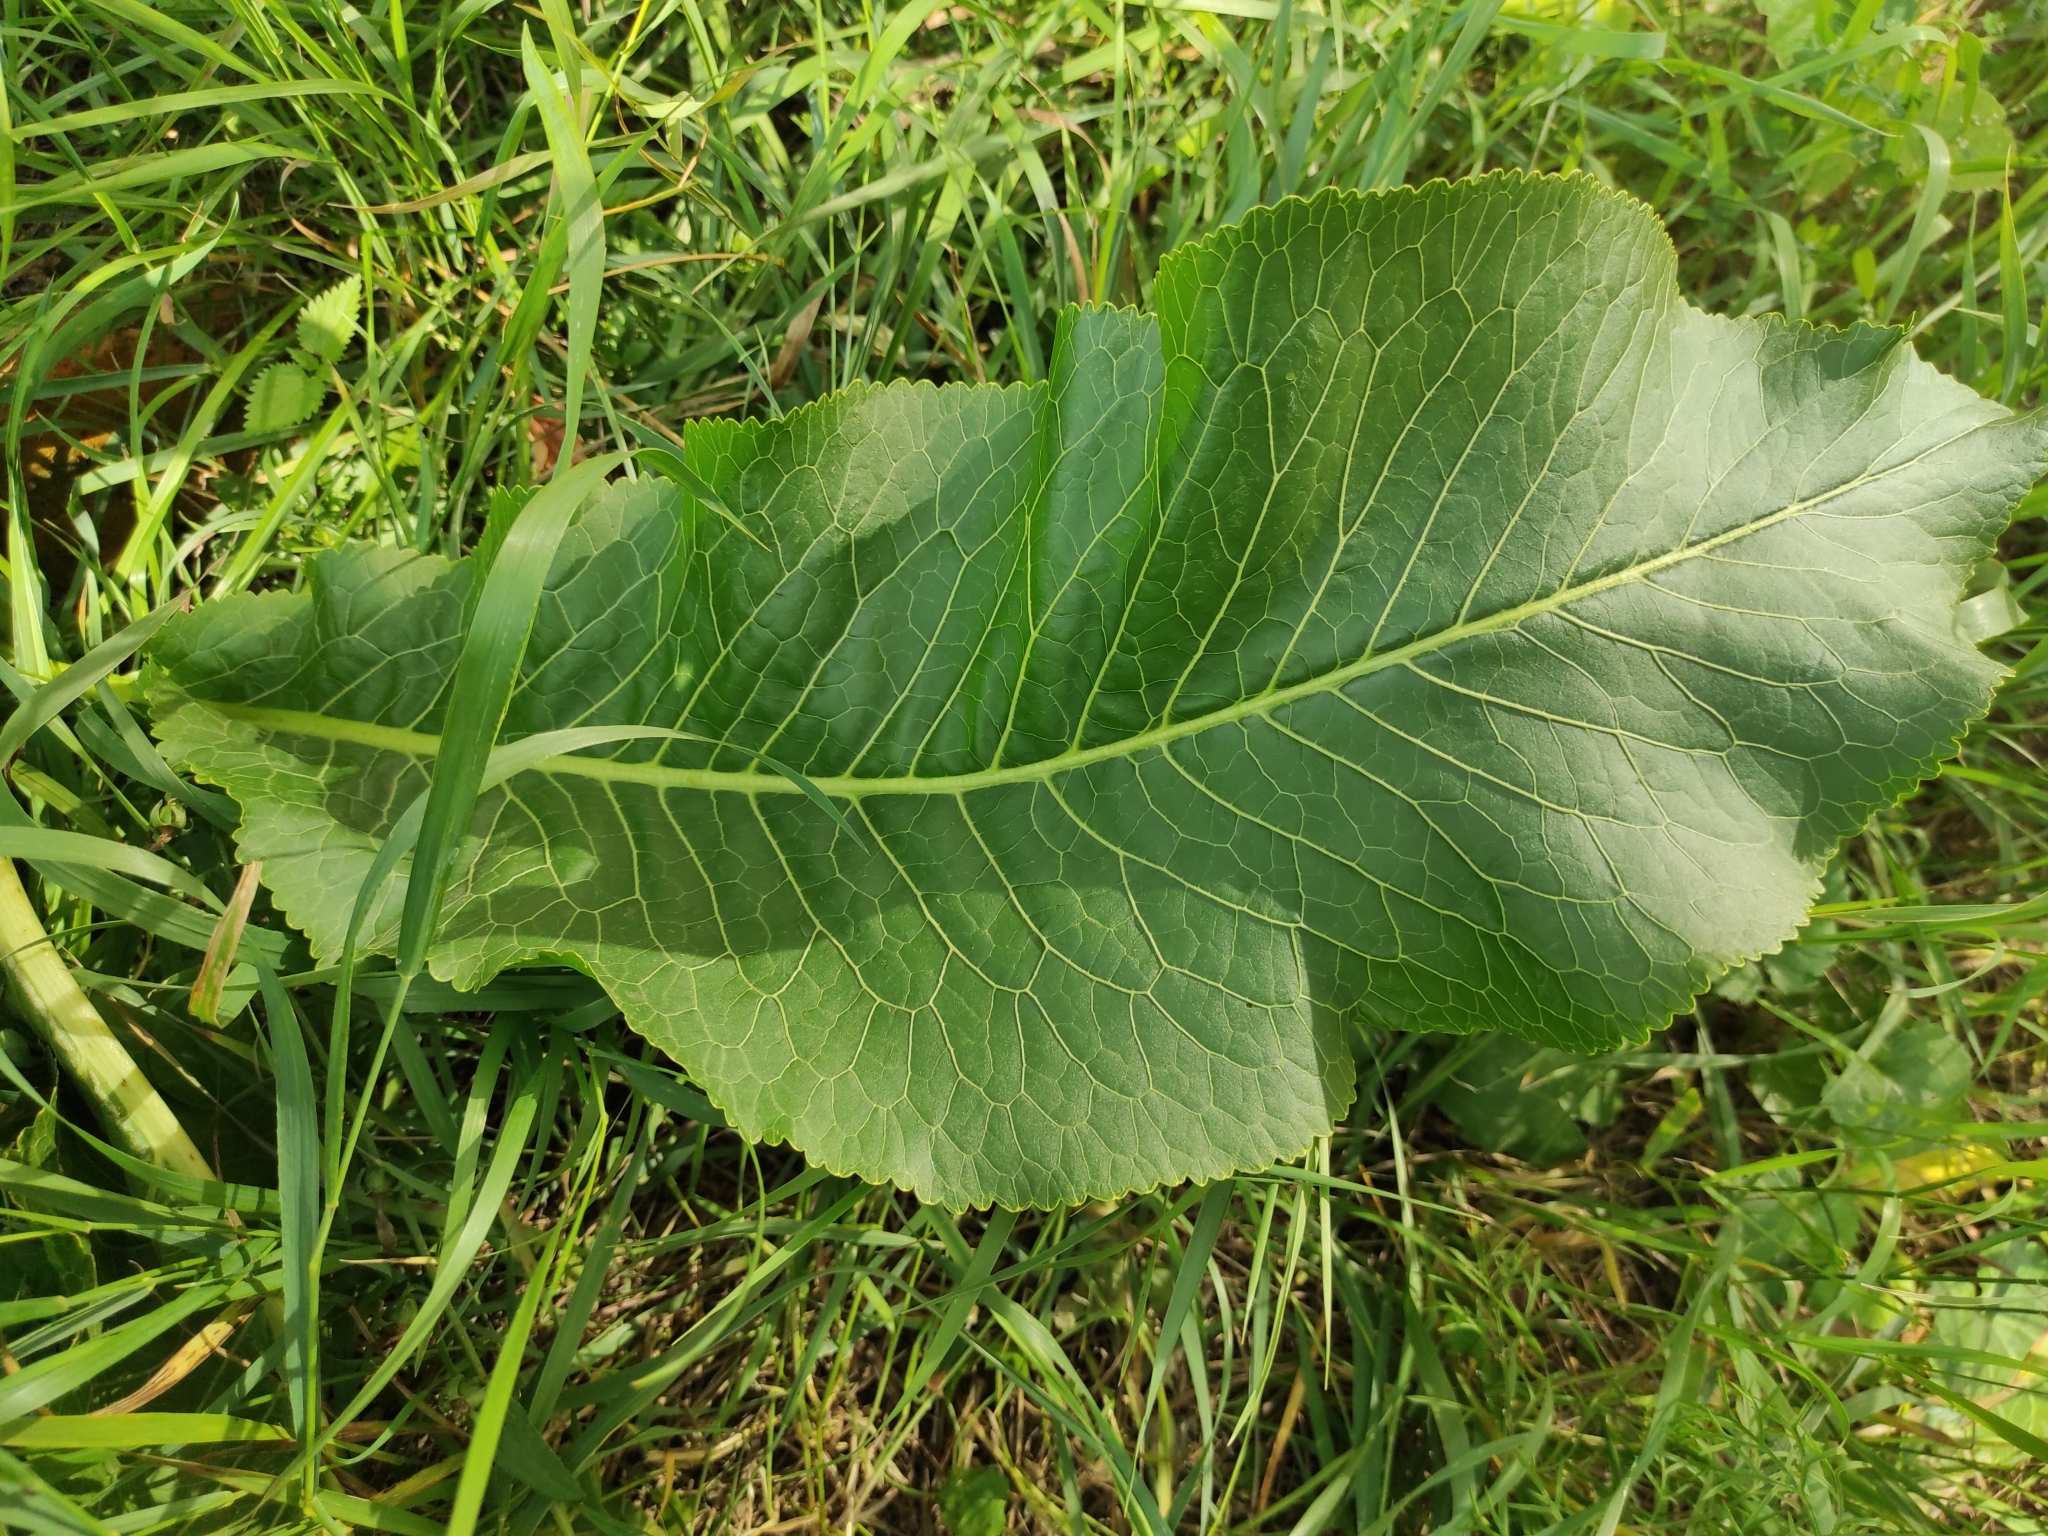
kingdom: Plantae
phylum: Tracheophyta
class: Magnoliopsida
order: Brassicales
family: Brassicaceae
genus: Armoracia
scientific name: Armoracia rusticana
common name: Horseradish
